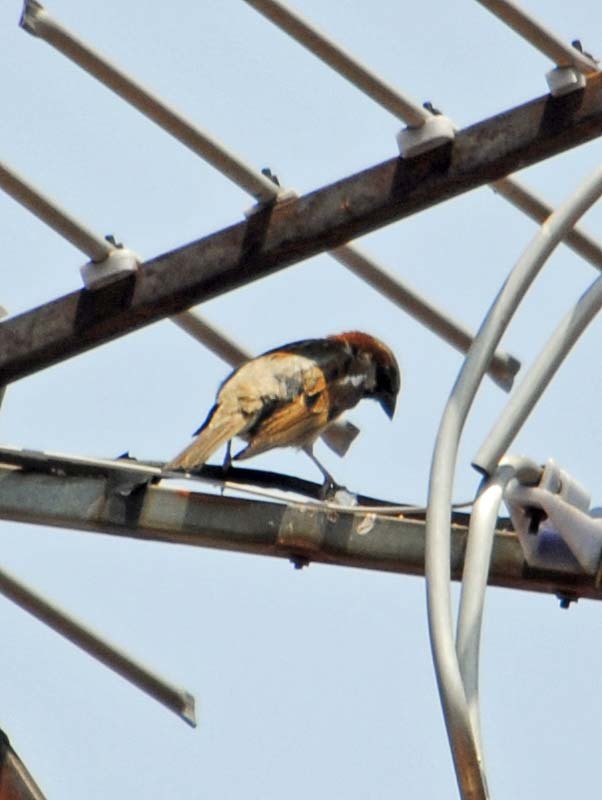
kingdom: Animalia
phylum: Chordata
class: Aves
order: Passeriformes
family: Passeridae
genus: Passer
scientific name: Passer domesticus
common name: House sparrow
